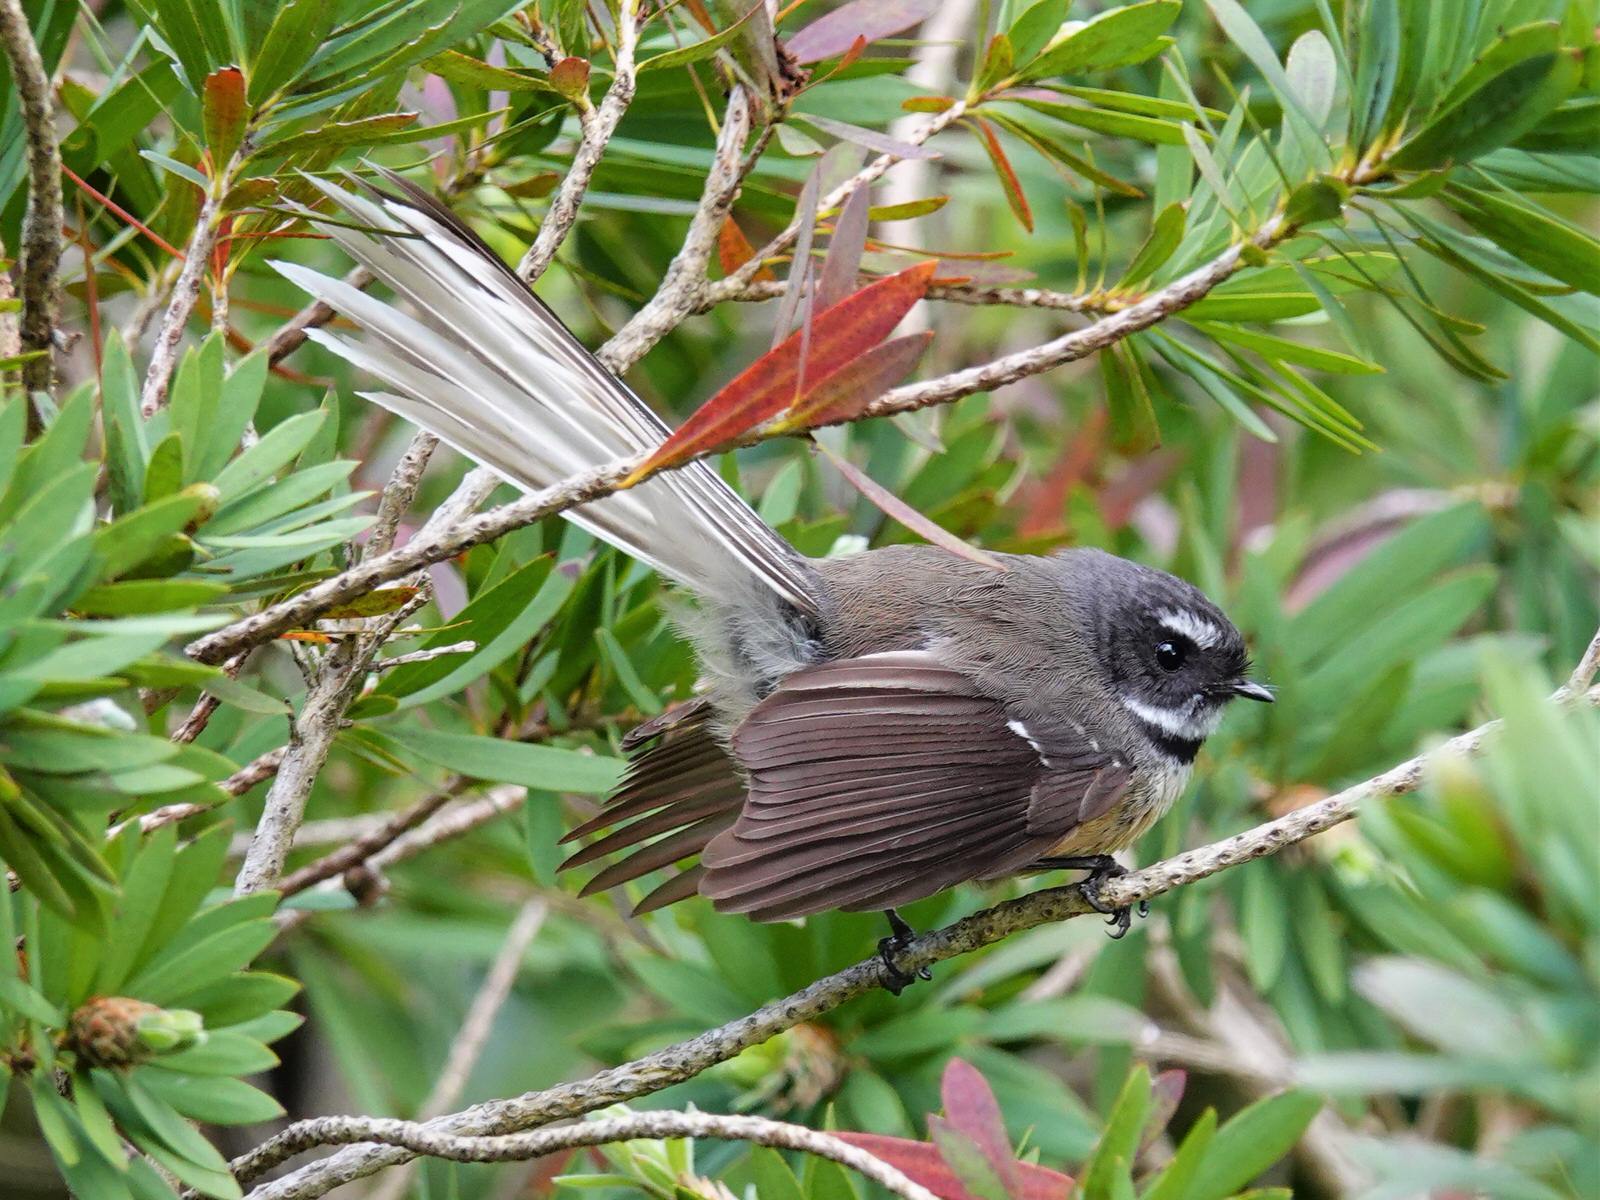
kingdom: Animalia
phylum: Chordata
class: Aves
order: Passeriformes
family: Rhipiduridae
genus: Rhipidura
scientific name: Rhipidura fuliginosa
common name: New zealand fantail
